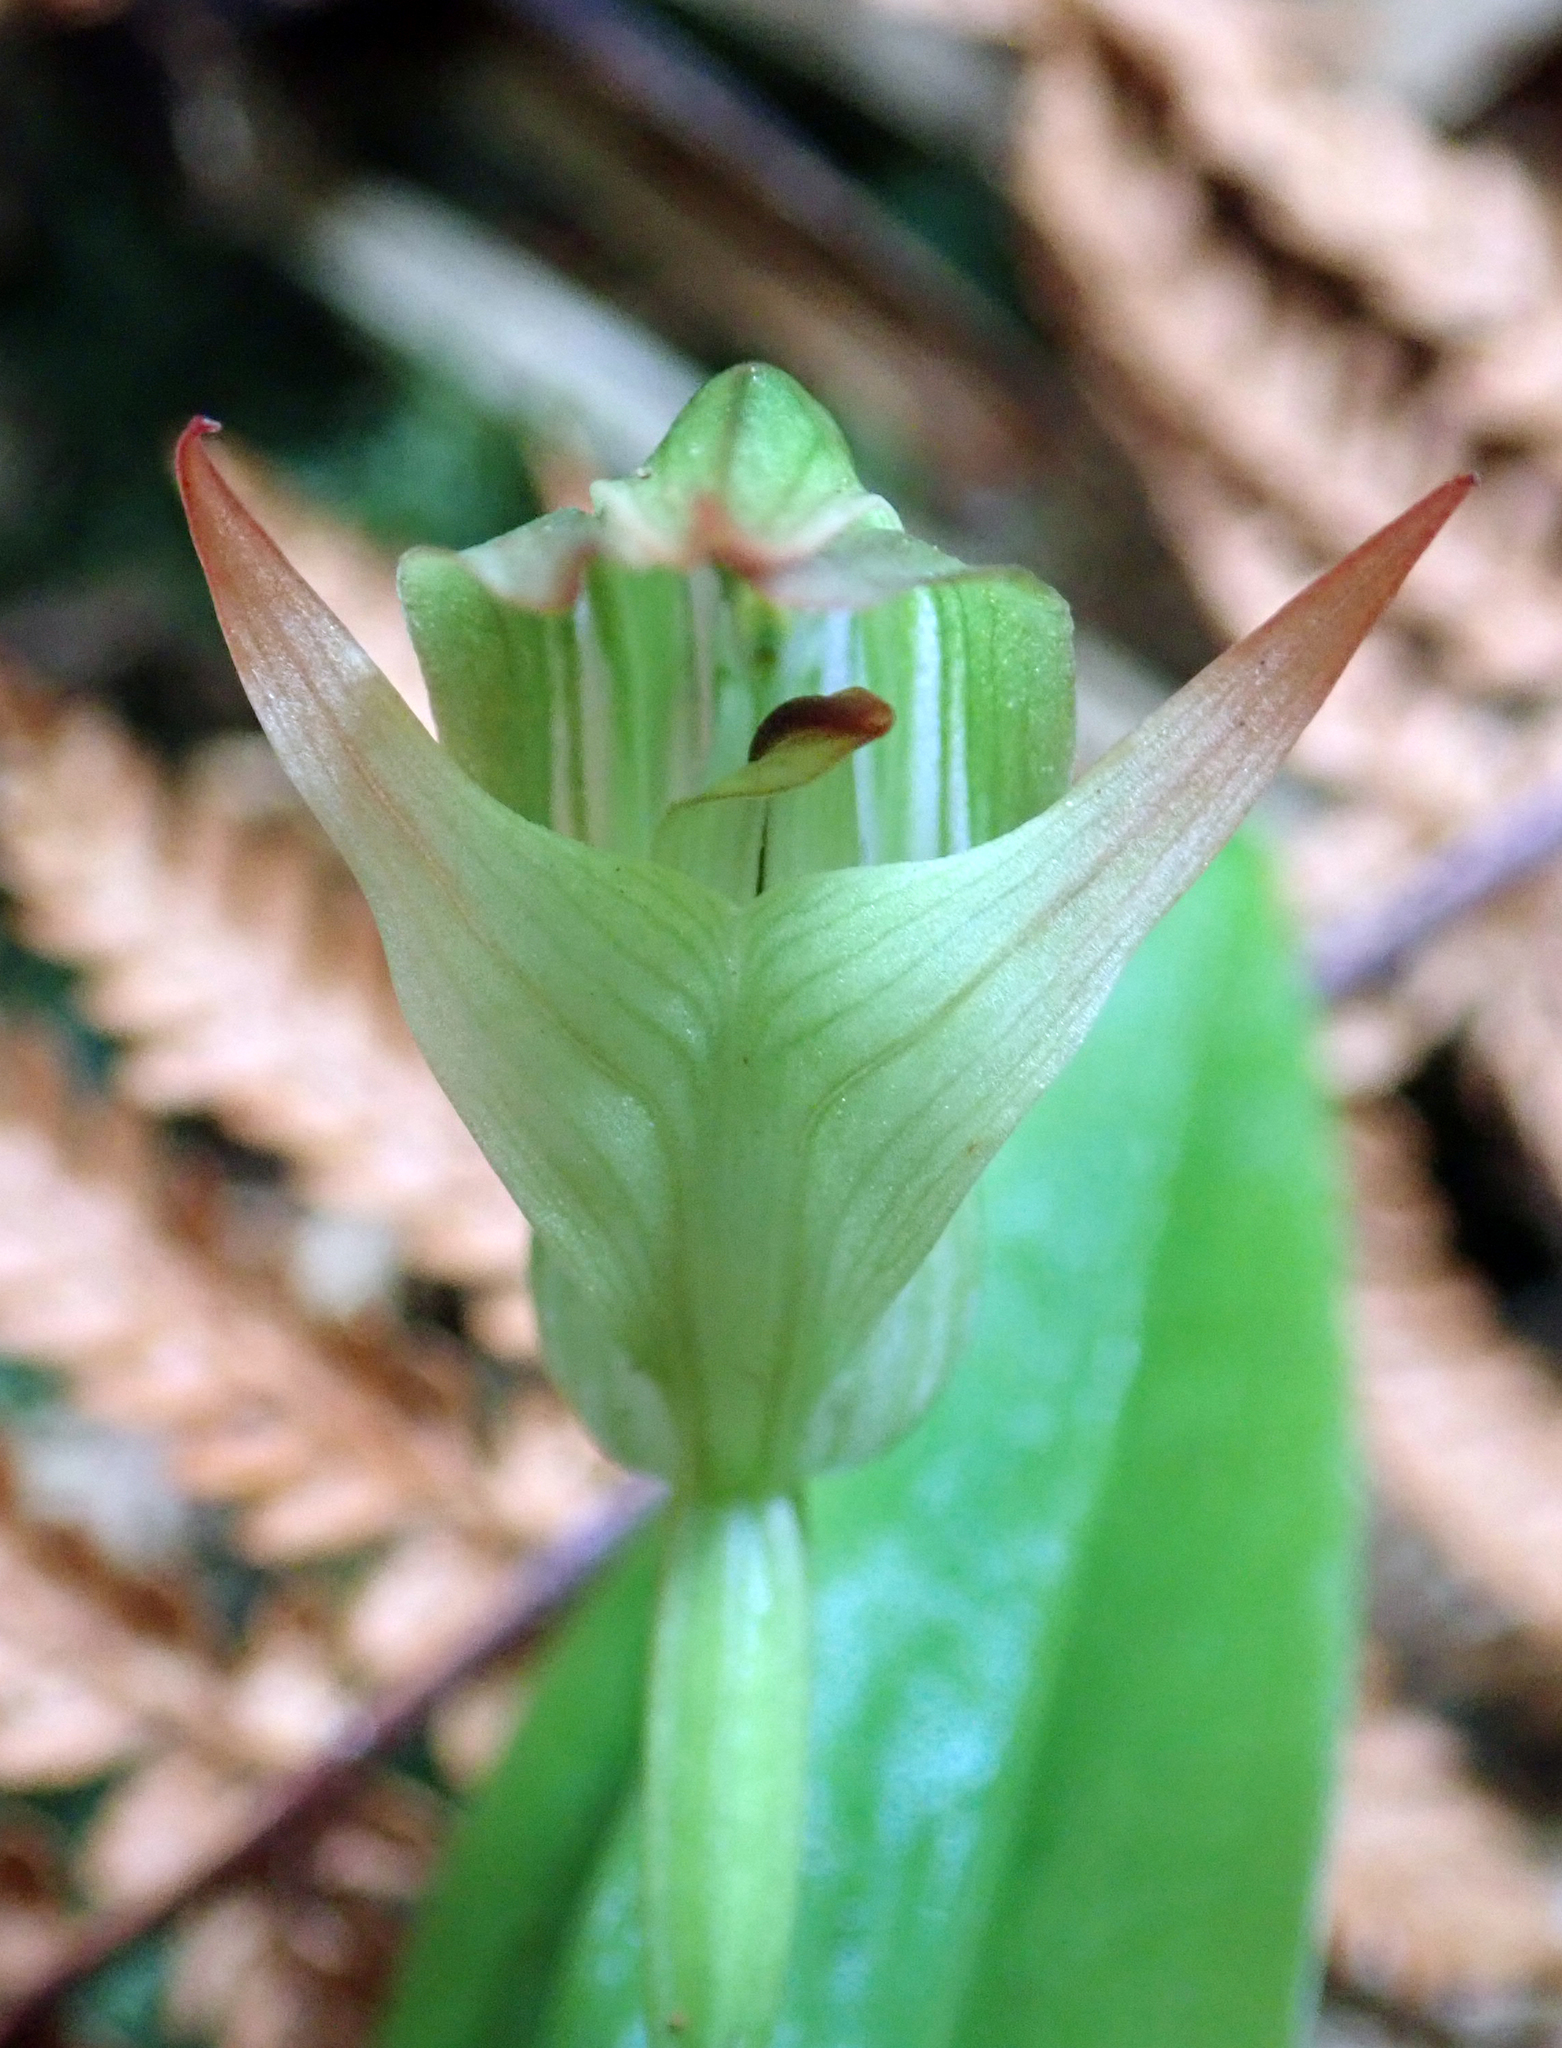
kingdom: Plantae
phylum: Tracheophyta
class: Liliopsida
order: Asparagales
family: Orchidaceae
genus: Pterostylis
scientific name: Pterostylis silvicultrix
